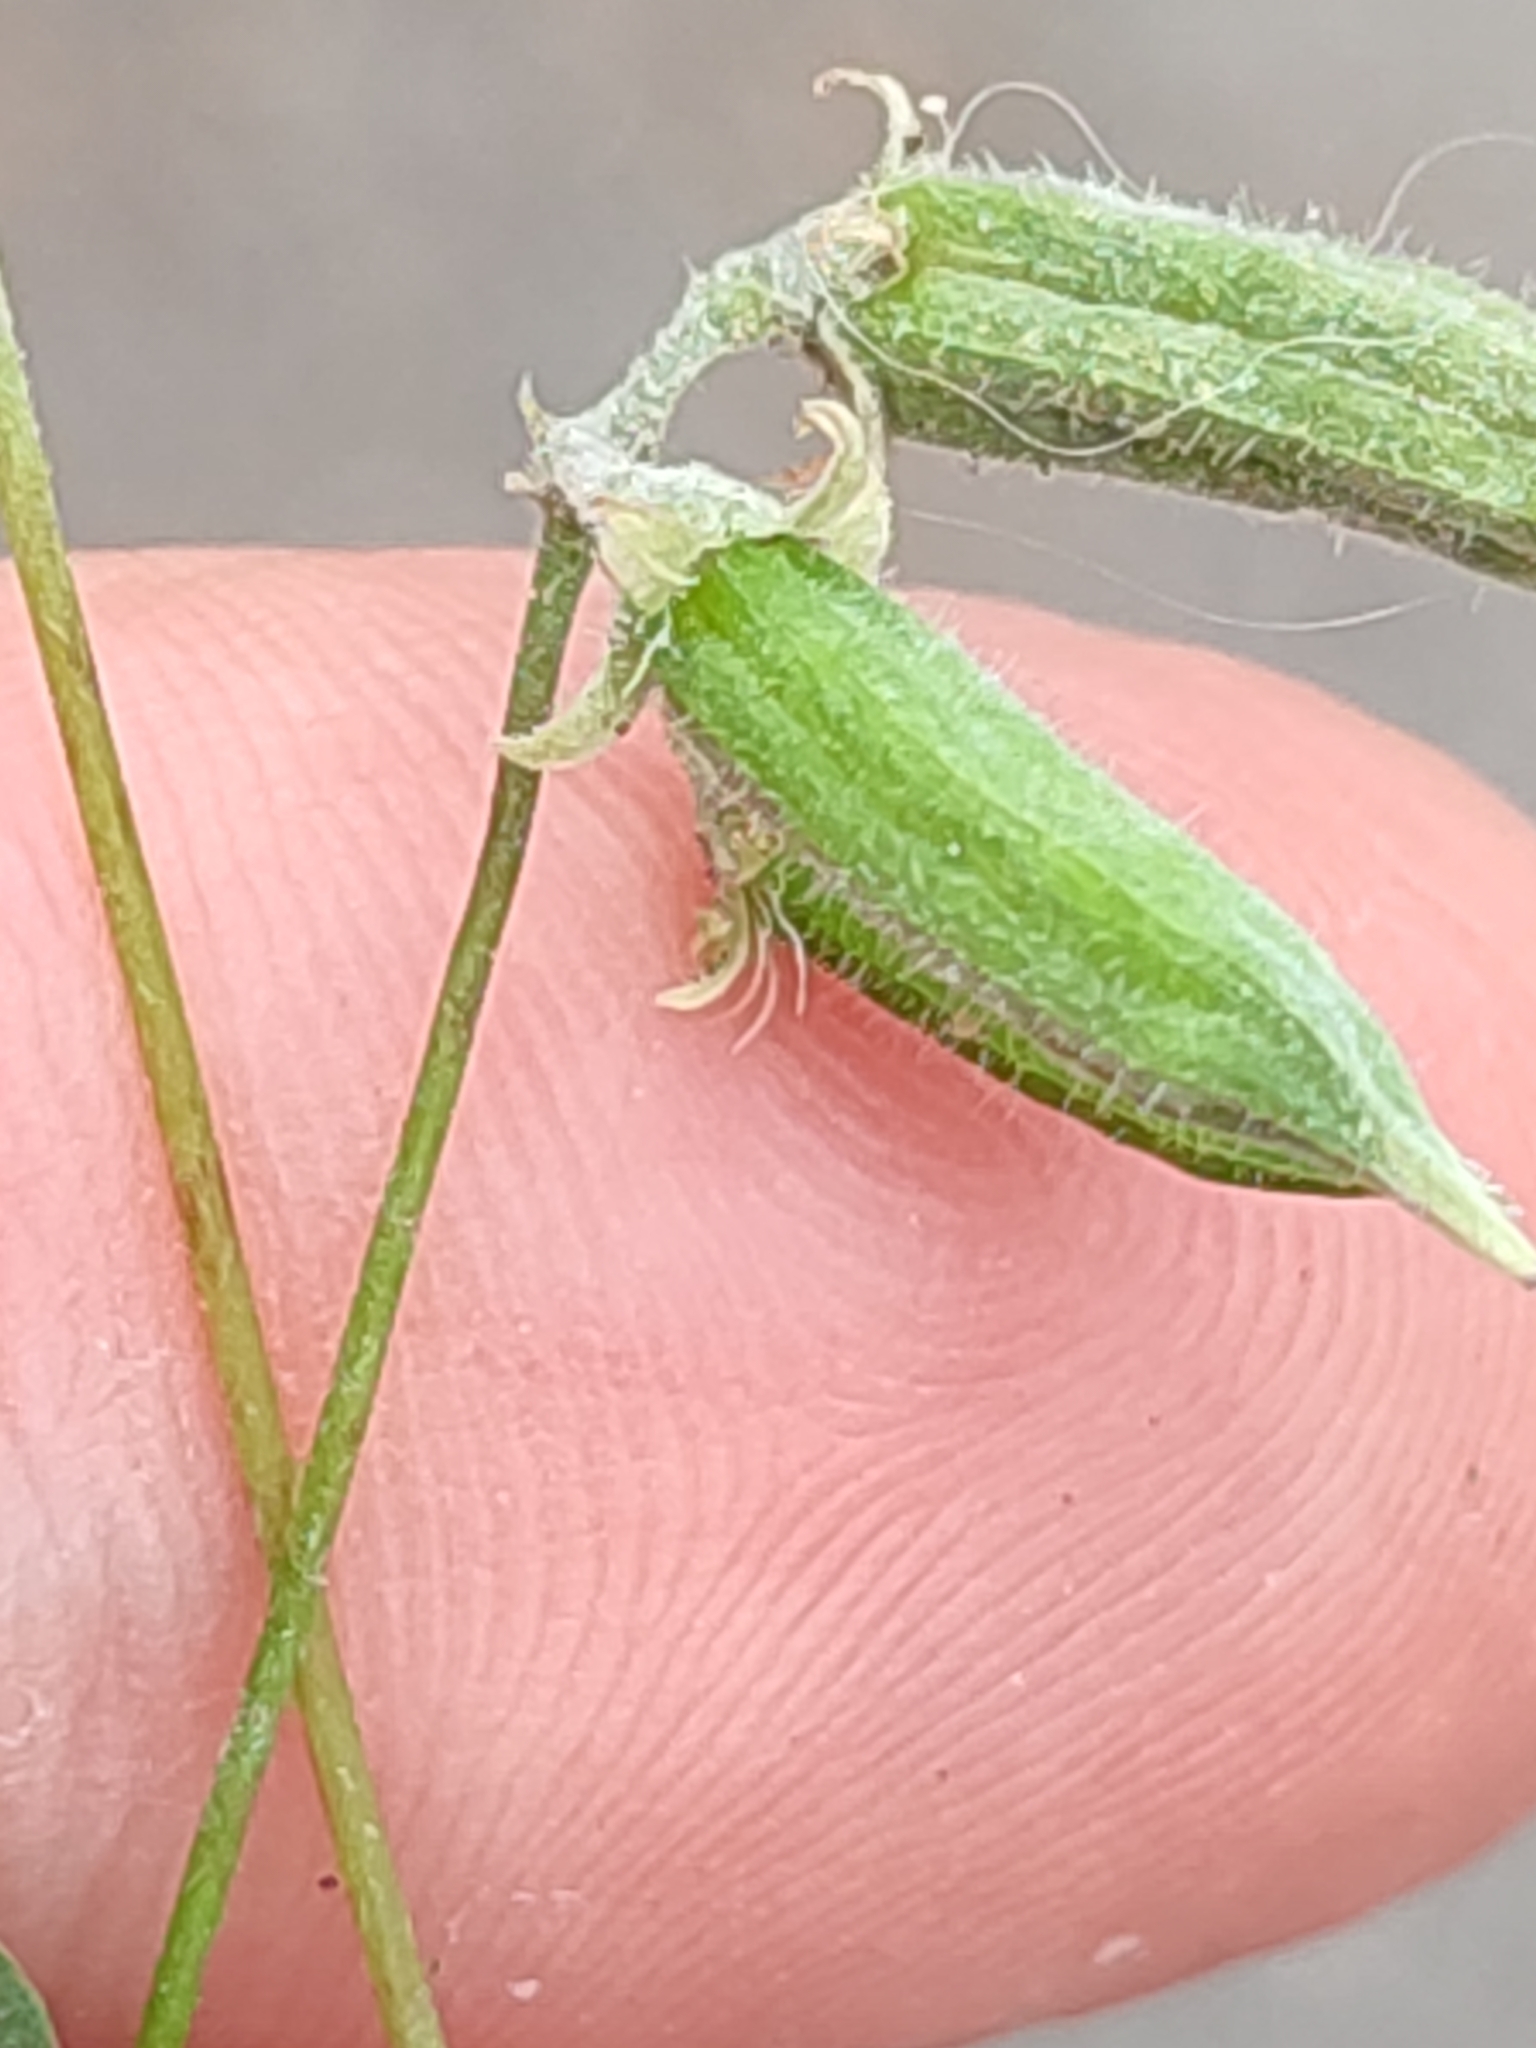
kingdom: Plantae
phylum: Tracheophyta
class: Magnoliopsida
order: Oxalidales
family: Oxalidaceae
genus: Oxalis
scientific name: Oxalis stricta
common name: Upright yellow-sorrel
